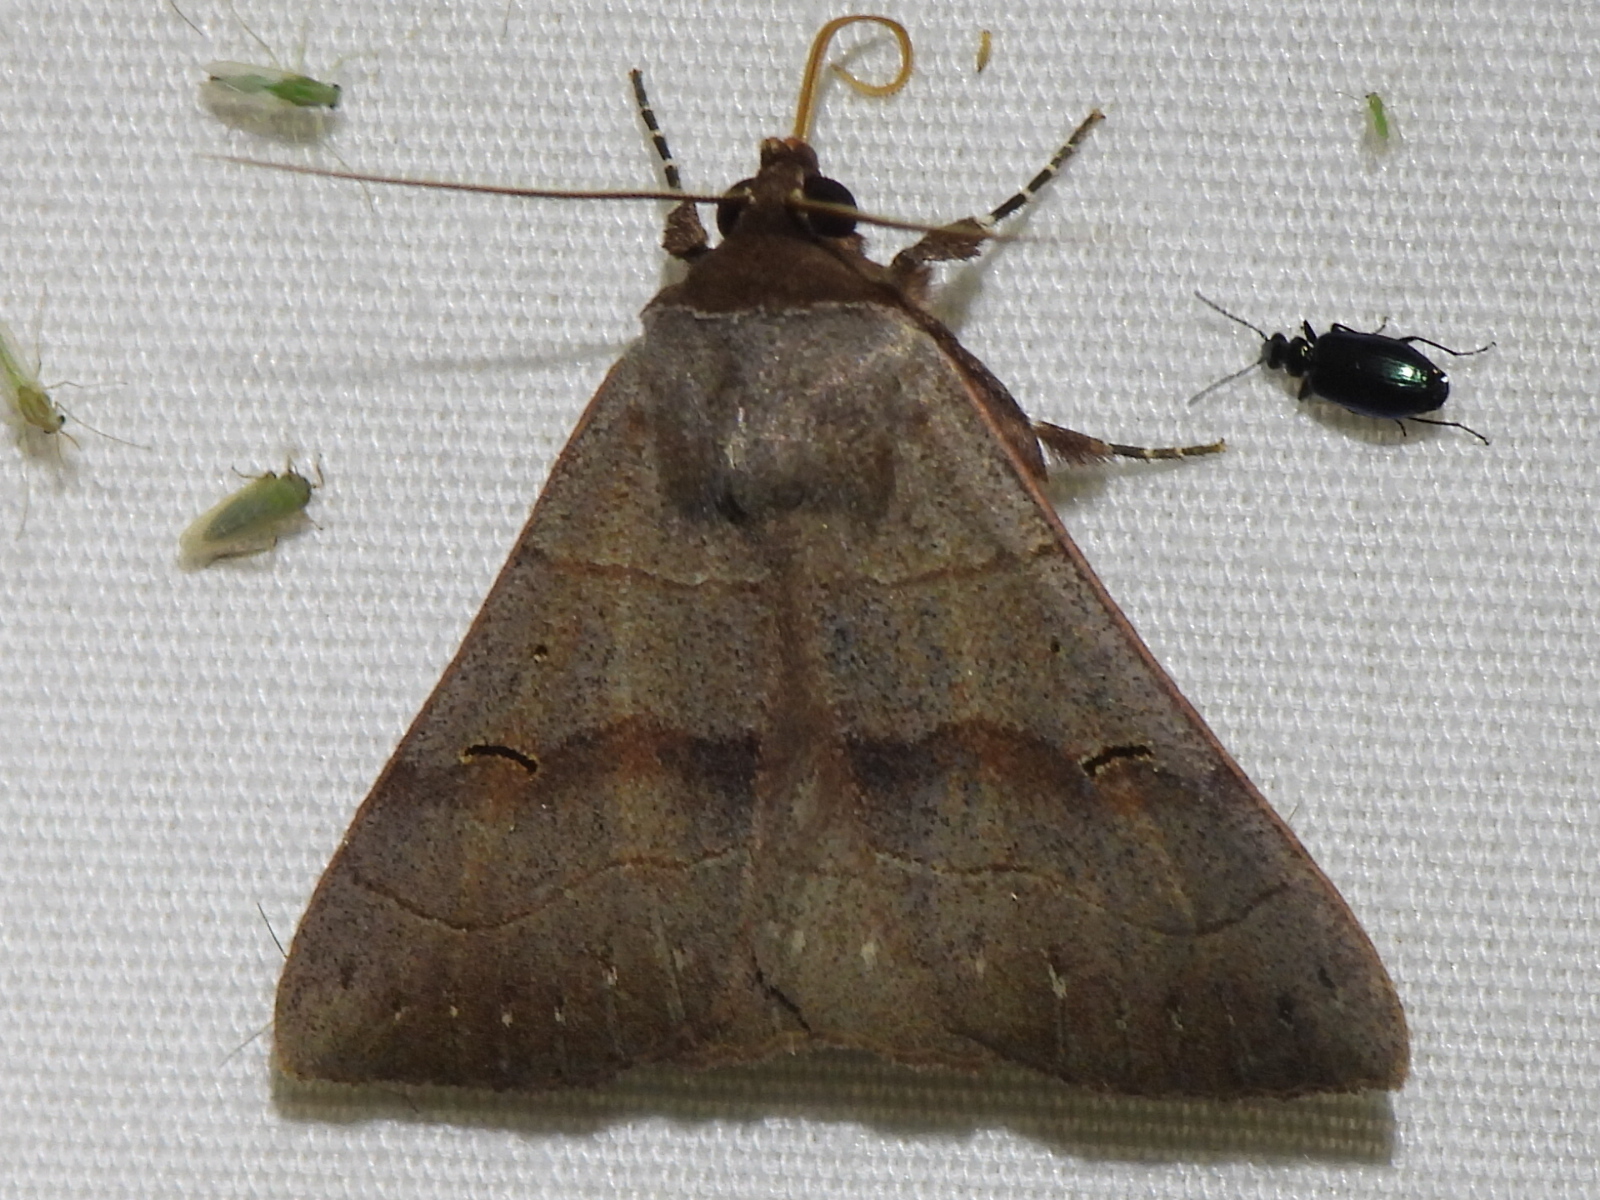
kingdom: Animalia
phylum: Arthropoda
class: Insecta
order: Lepidoptera
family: Erebidae
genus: Panopoda
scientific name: Panopoda carneicosta
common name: Brown panopoda moth
